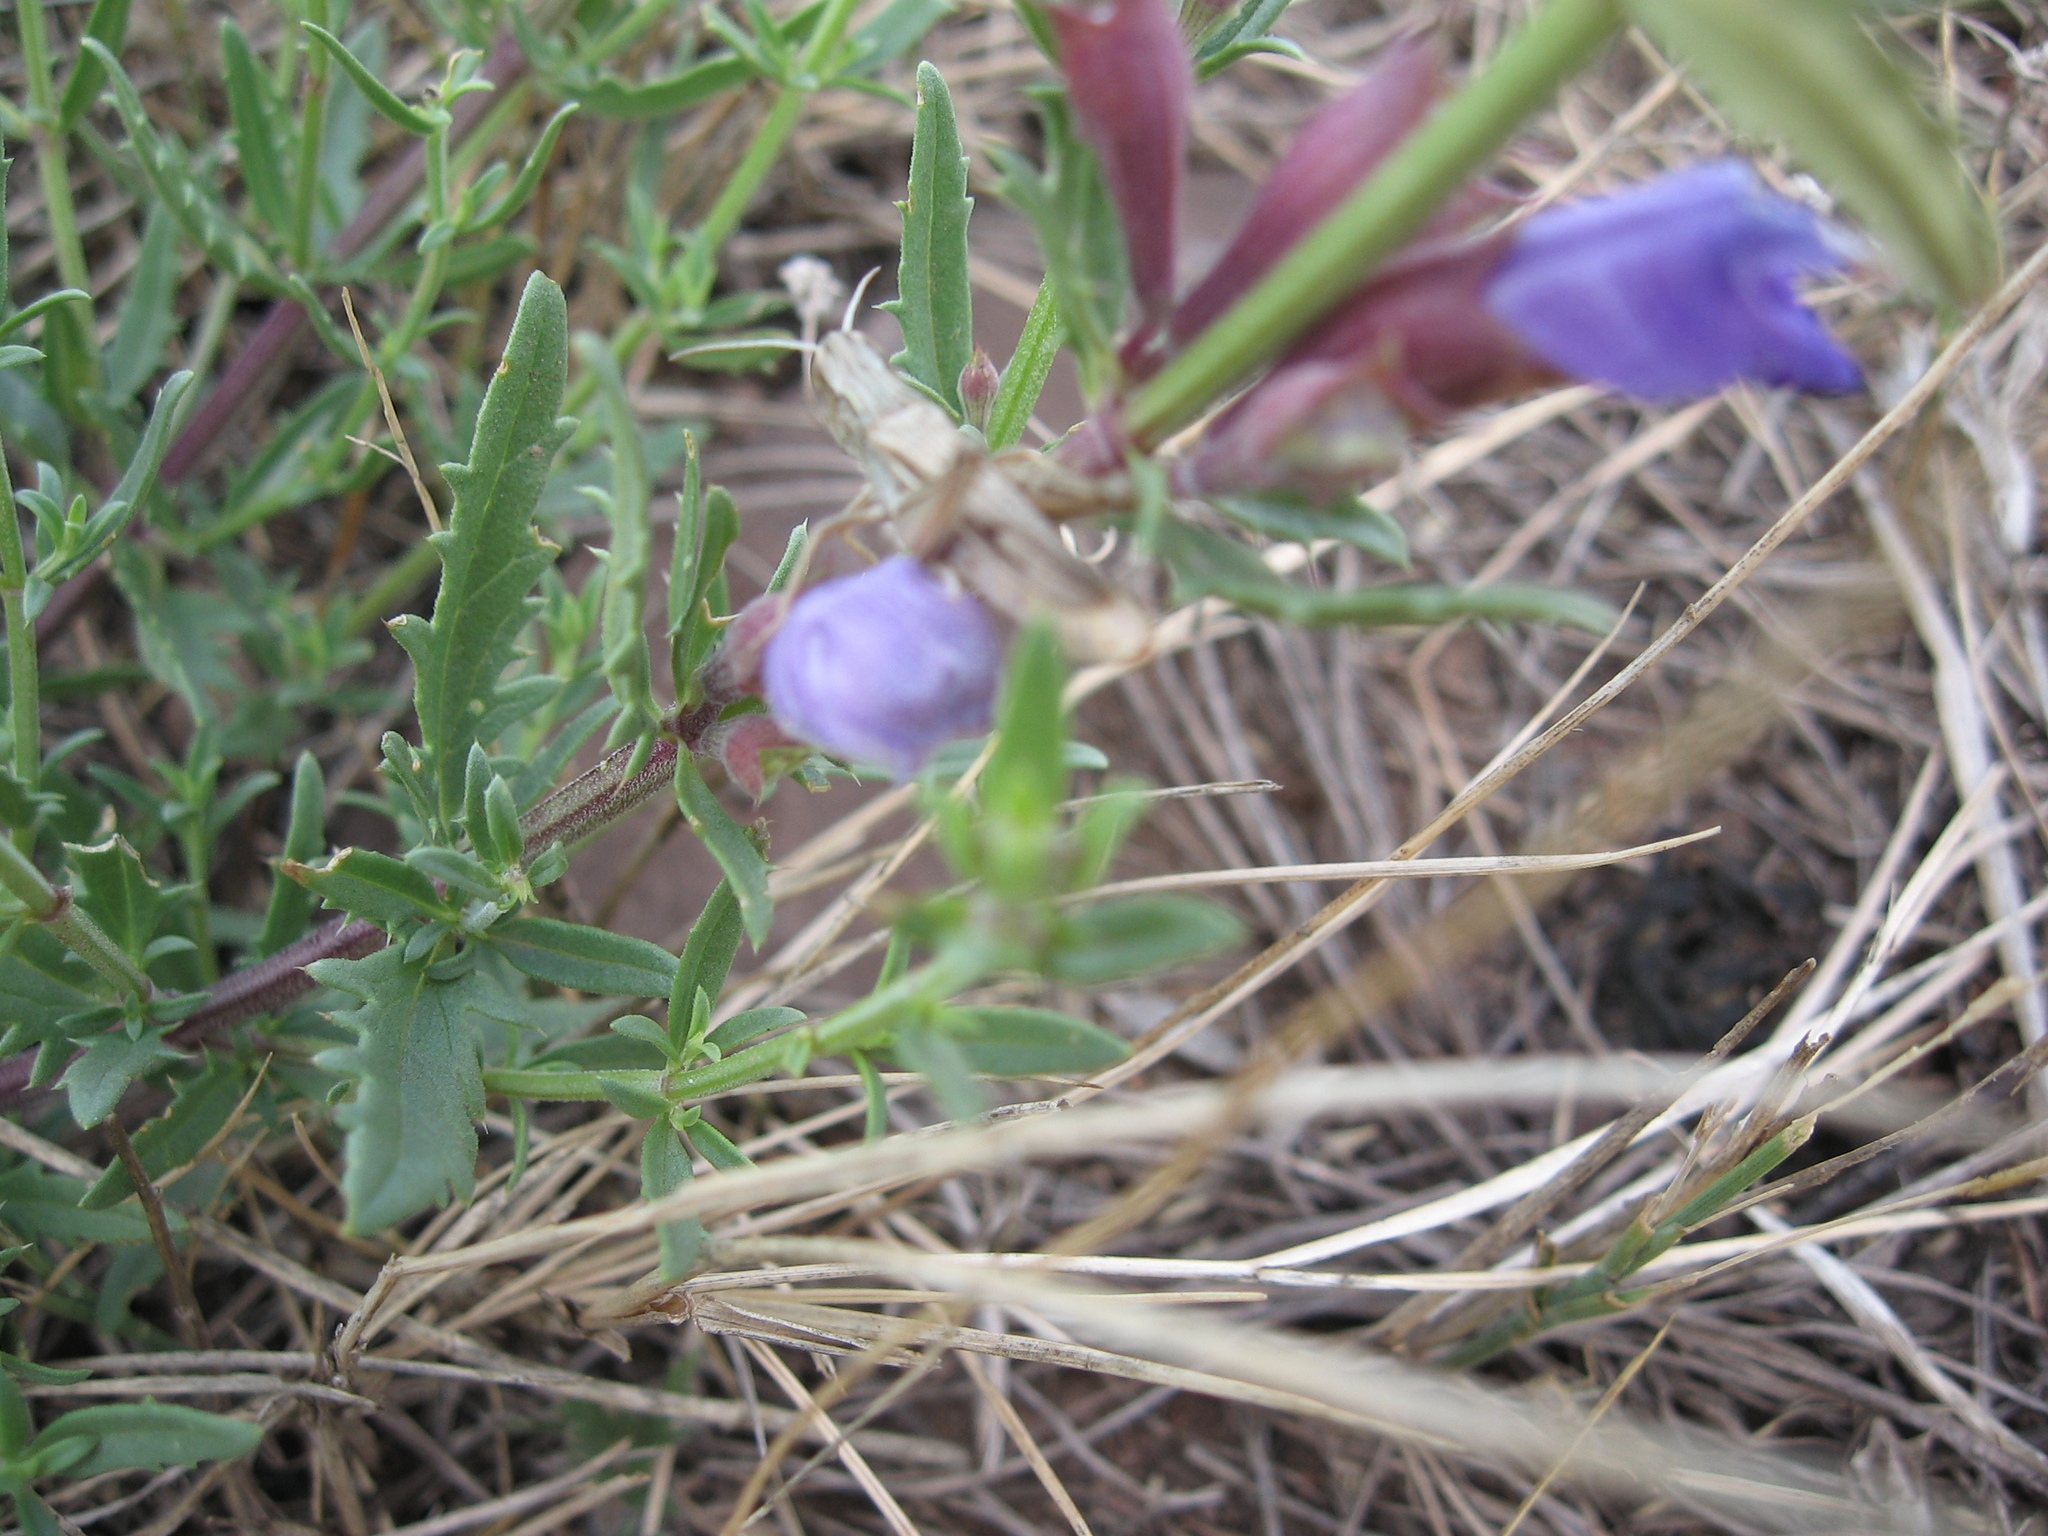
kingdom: Plantae
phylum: Tracheophyta
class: Magnoliopsida
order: Lamiales
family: Lamiaceae
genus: Dracocephalum
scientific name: Dracocephalum peregrinum
